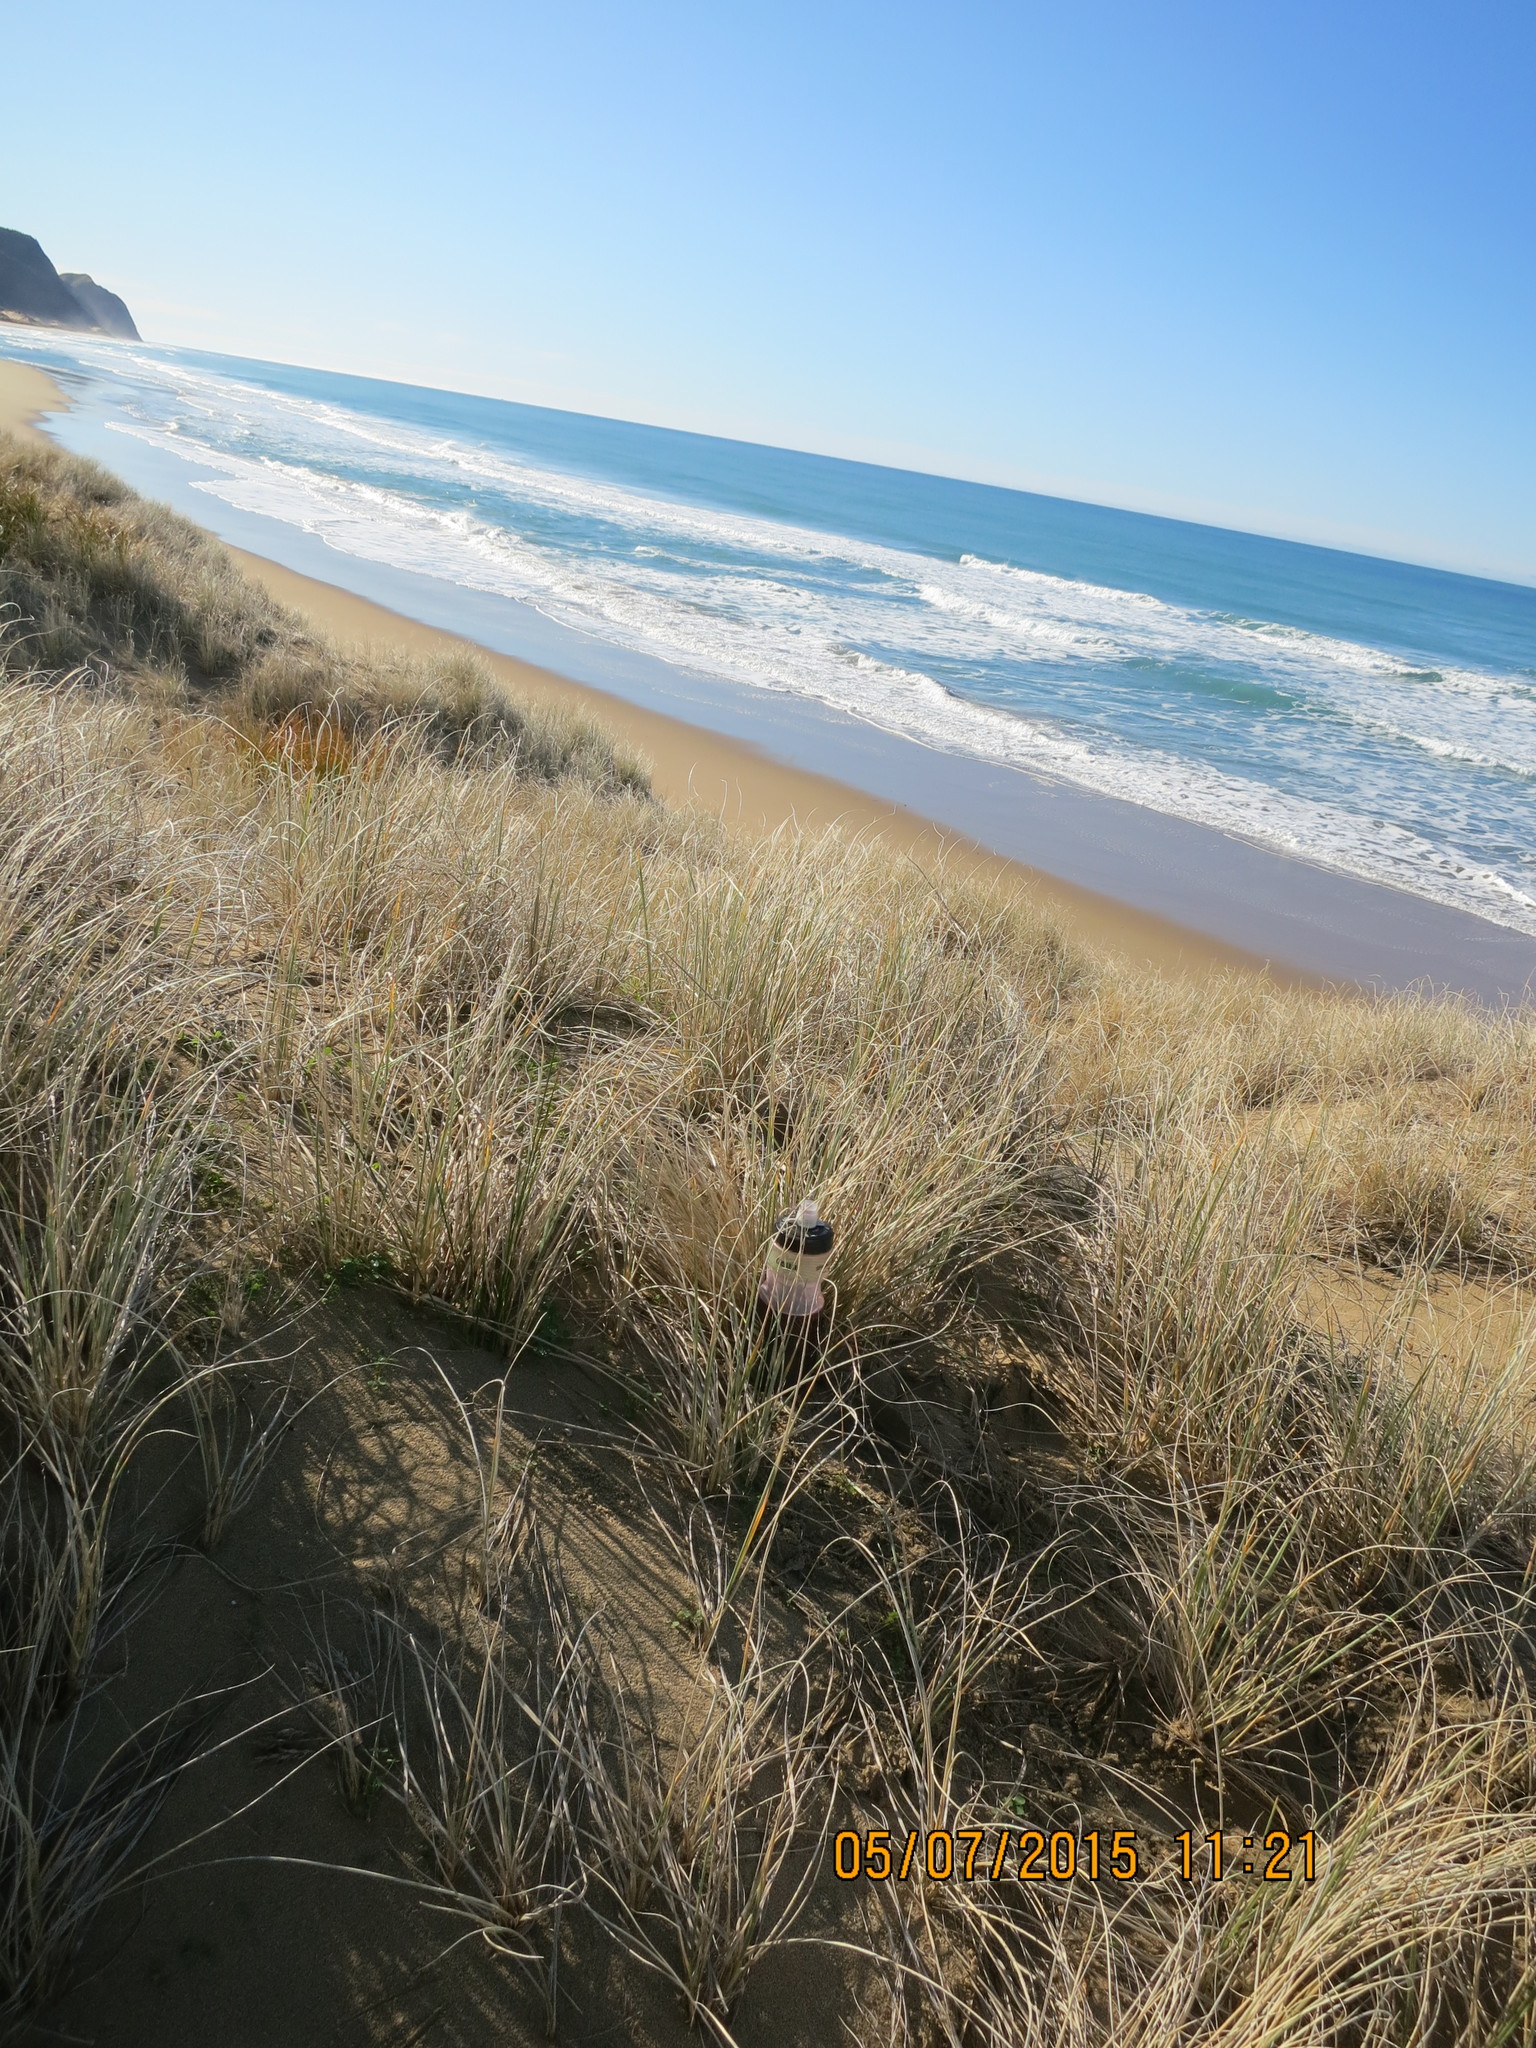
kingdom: Animalia
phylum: Arthropoda
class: Arachnida
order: Araneae
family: Theridiidae
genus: Steatoda
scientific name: Steatoda lepida
